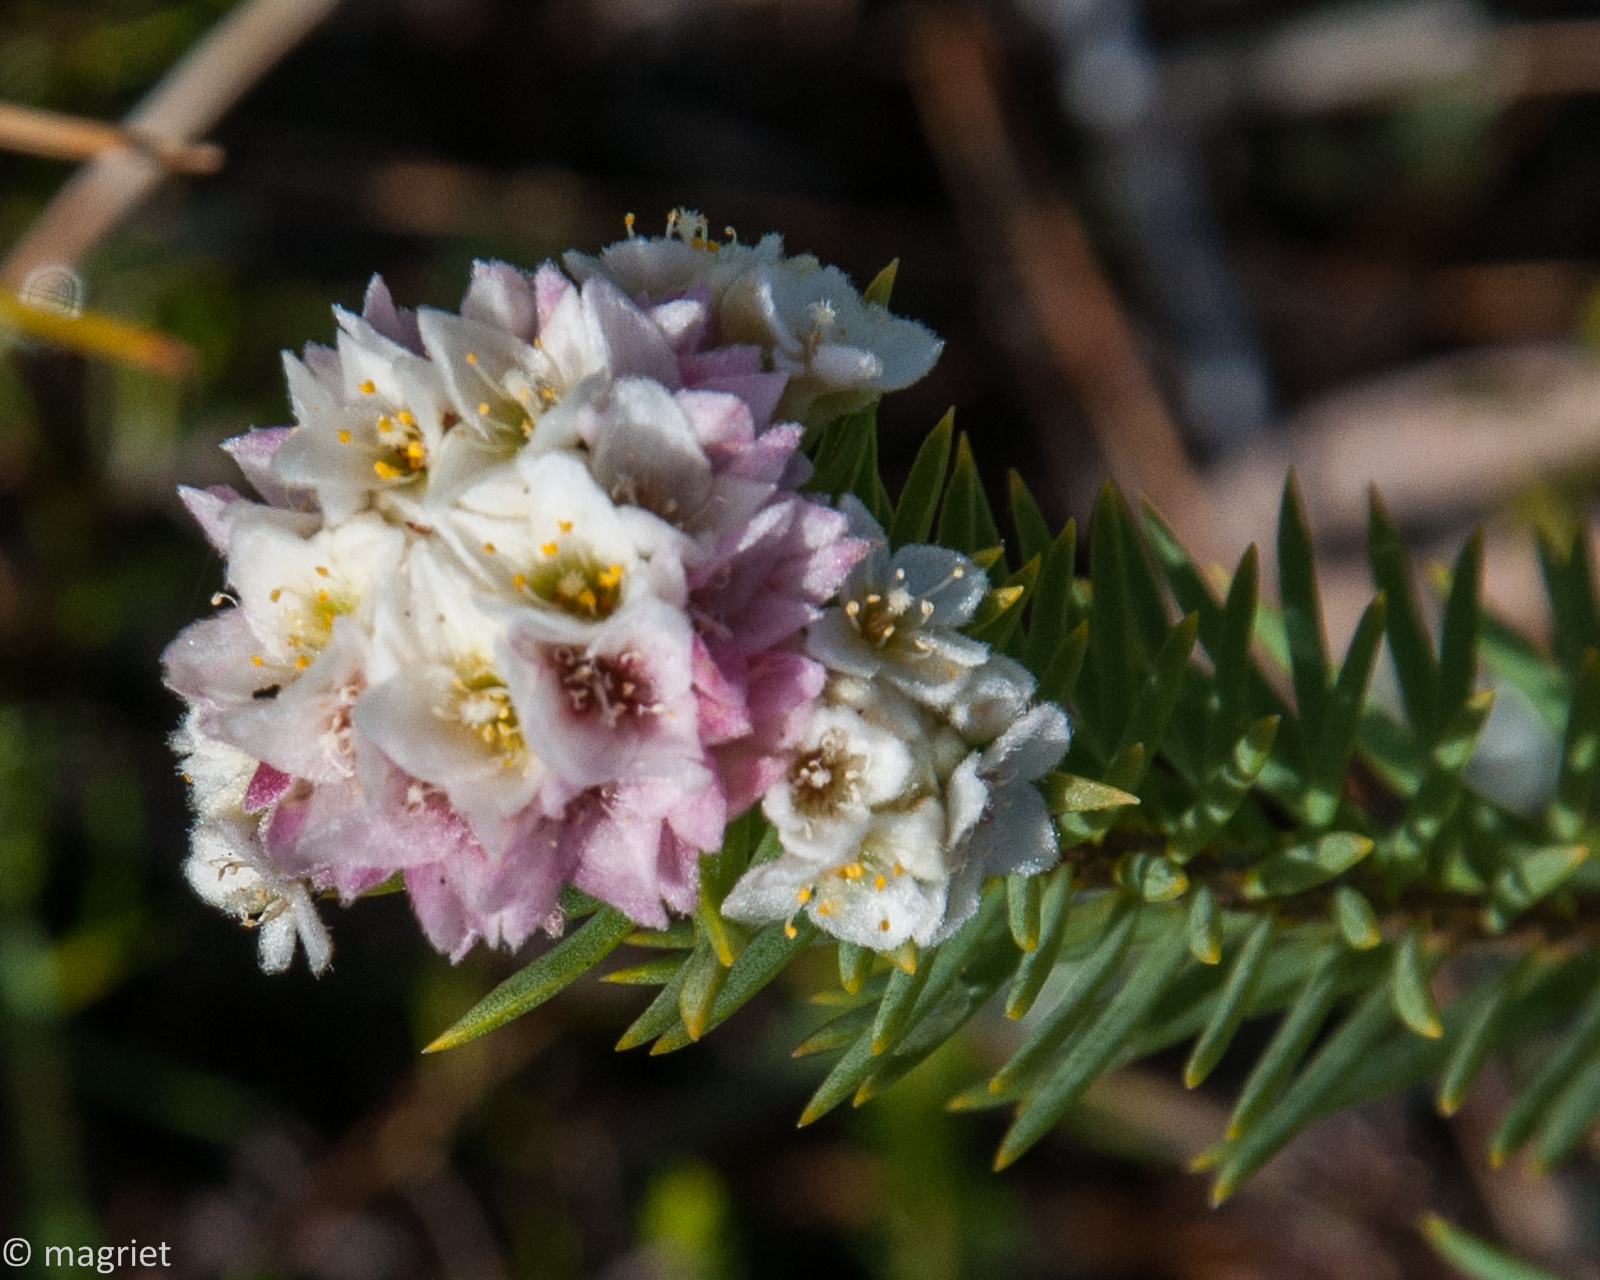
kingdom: Plantae
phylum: Tracheophyta
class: Magnoliopsida
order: Malvales
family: Thymelaeaceae
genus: Lachnaea
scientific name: Lachnaea densiflora
